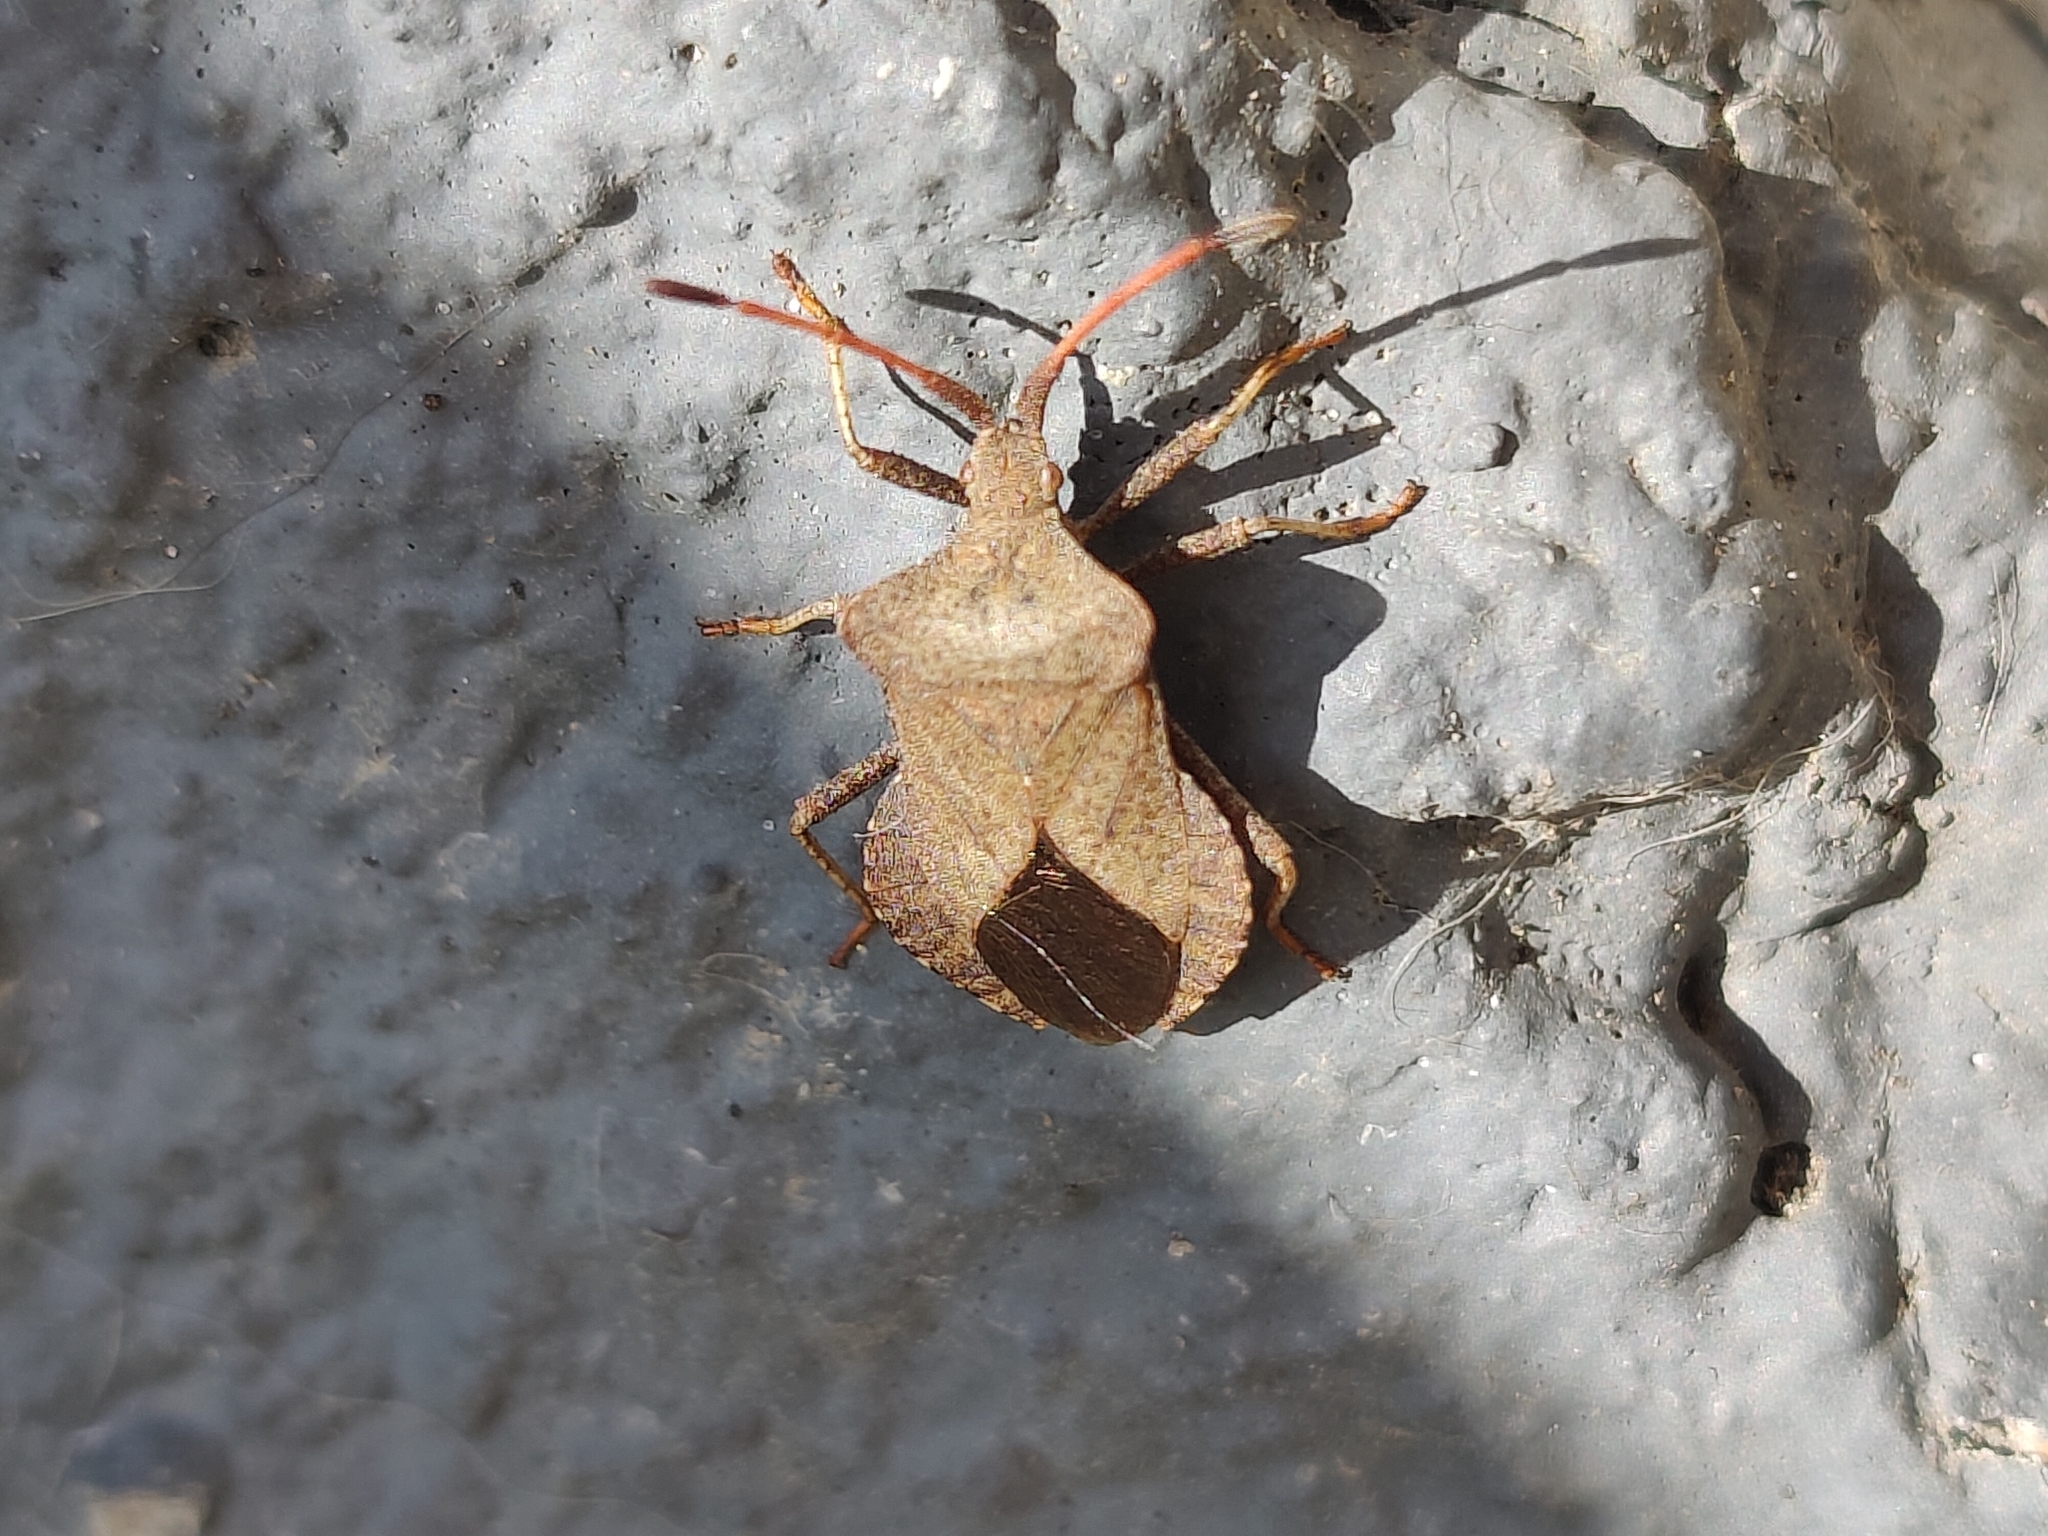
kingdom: Animalia
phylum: Arthropoda
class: Insecta
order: Hemiptera
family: Coreidae
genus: Coreus
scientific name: Coreus marginatus
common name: Dock bug
